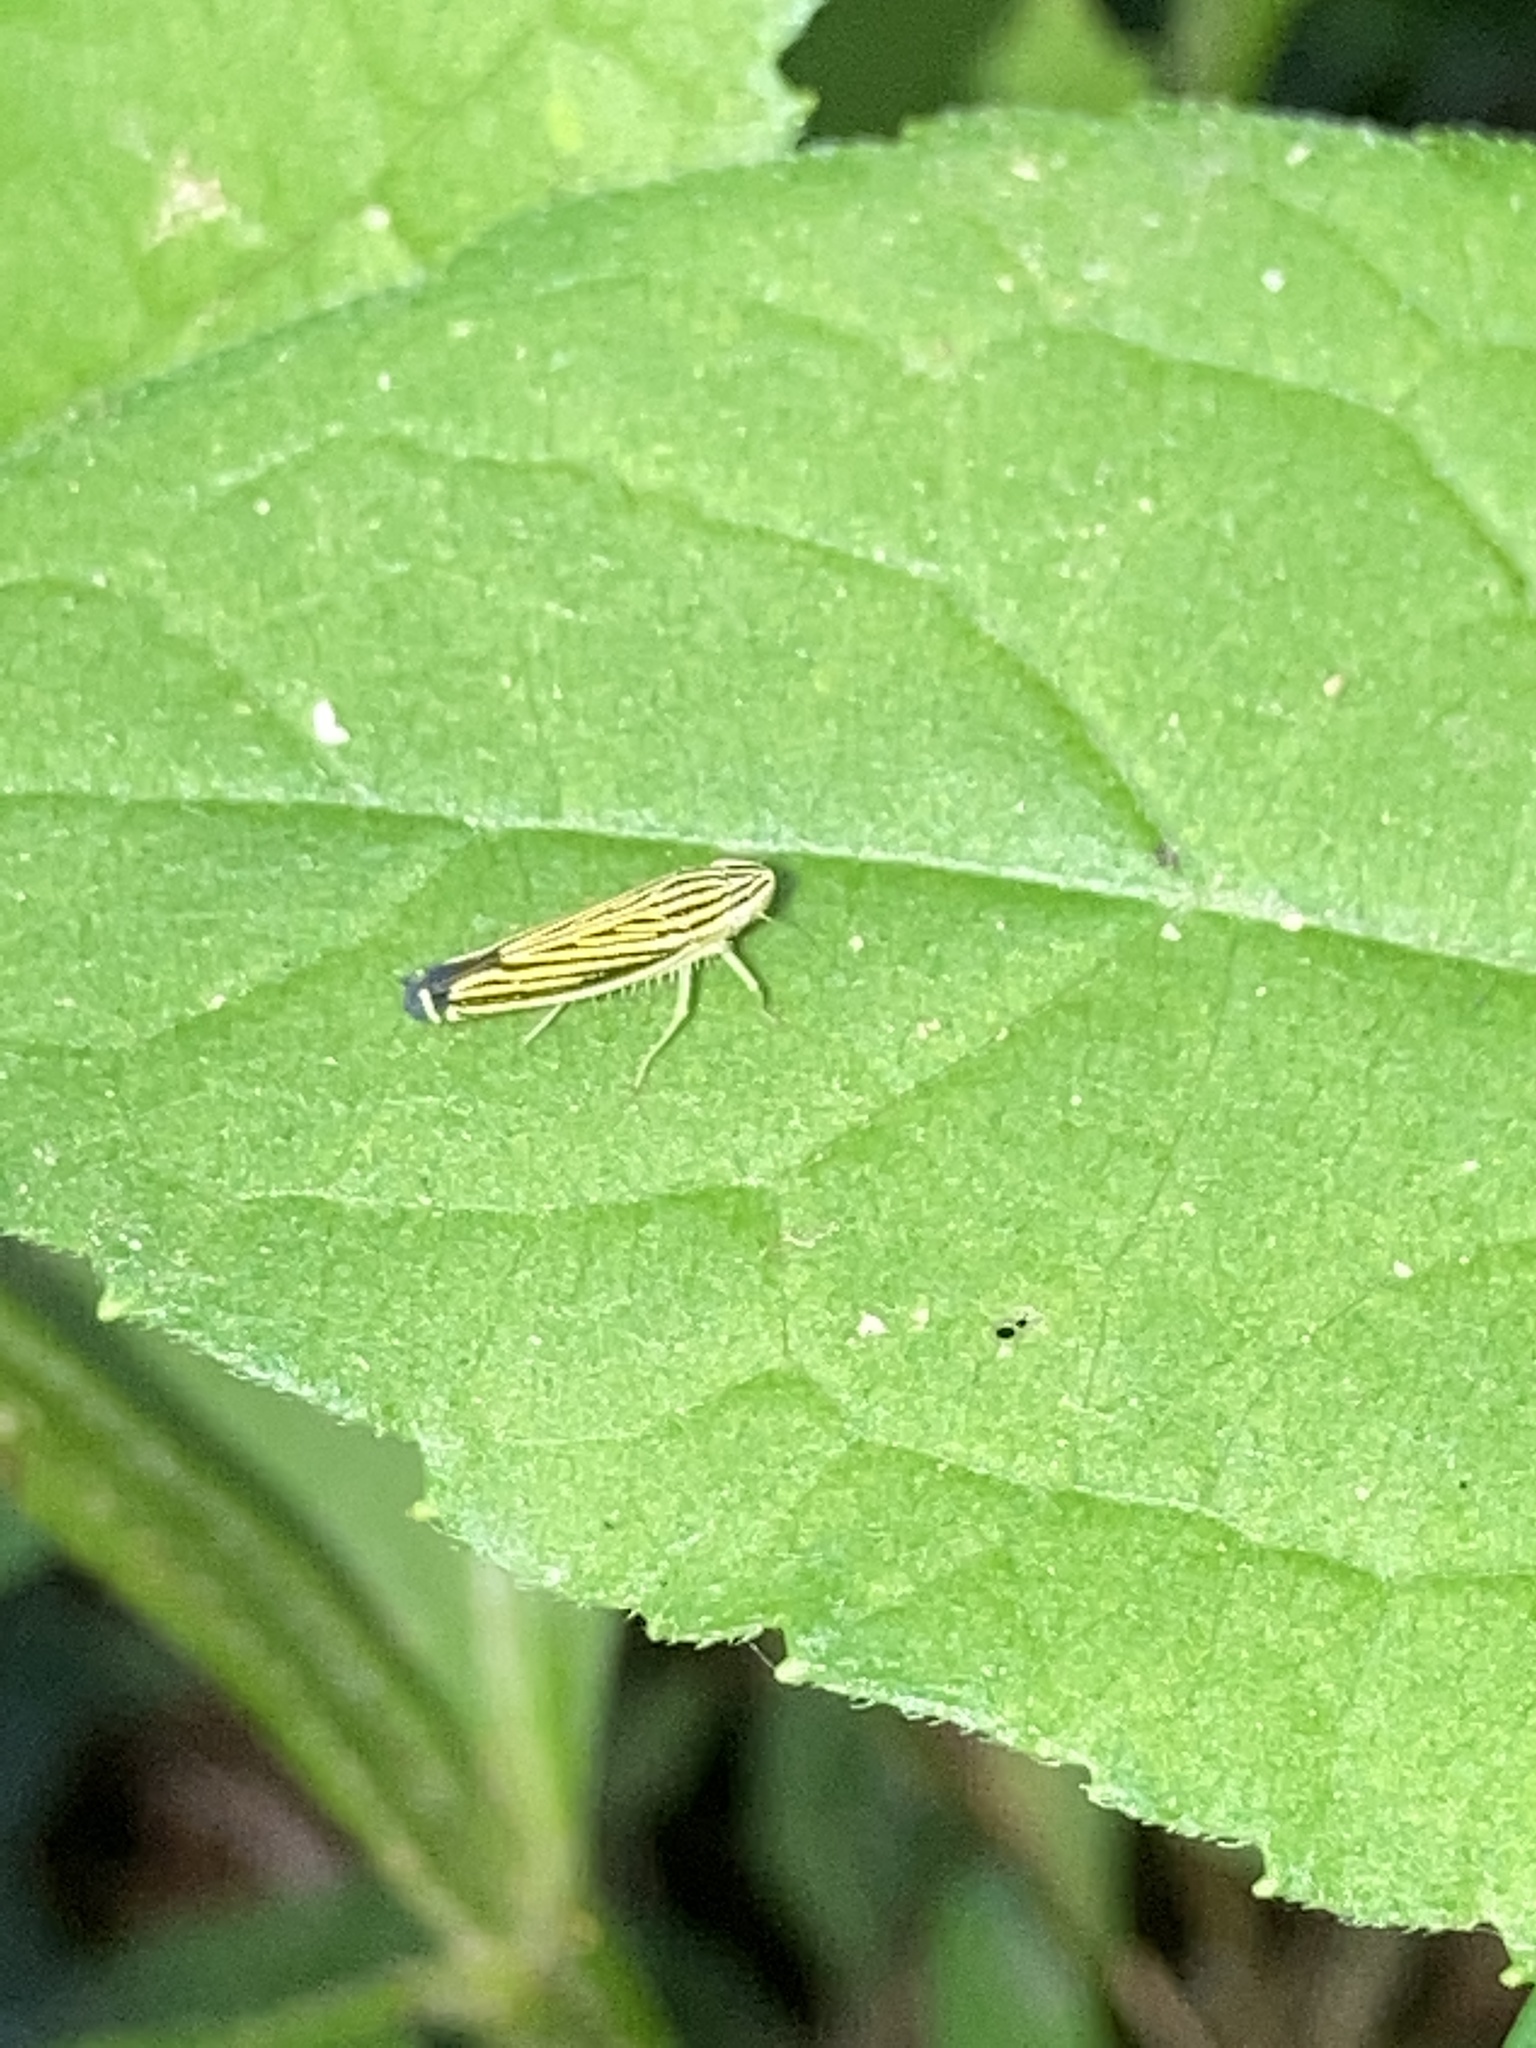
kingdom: Animalia
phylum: Arthropoda
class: Insecta
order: Hemiptera
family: Cicadellidae
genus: Sibovia
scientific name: Sibovia occatoria
